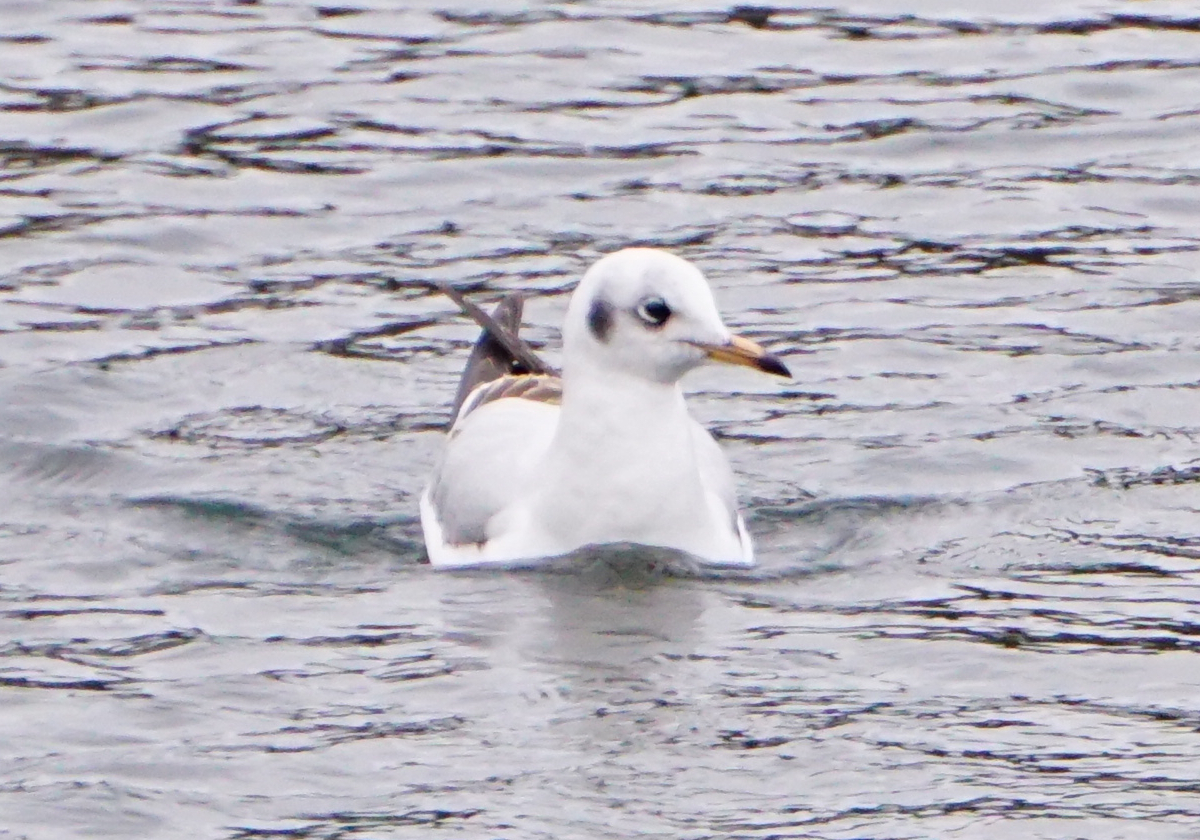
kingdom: Animalia
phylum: Chordata
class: Aves
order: Charadriiformes
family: Laridae
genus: Chroicocephalus
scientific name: Chroicocephalus ridibundus
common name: Black-headed gull
